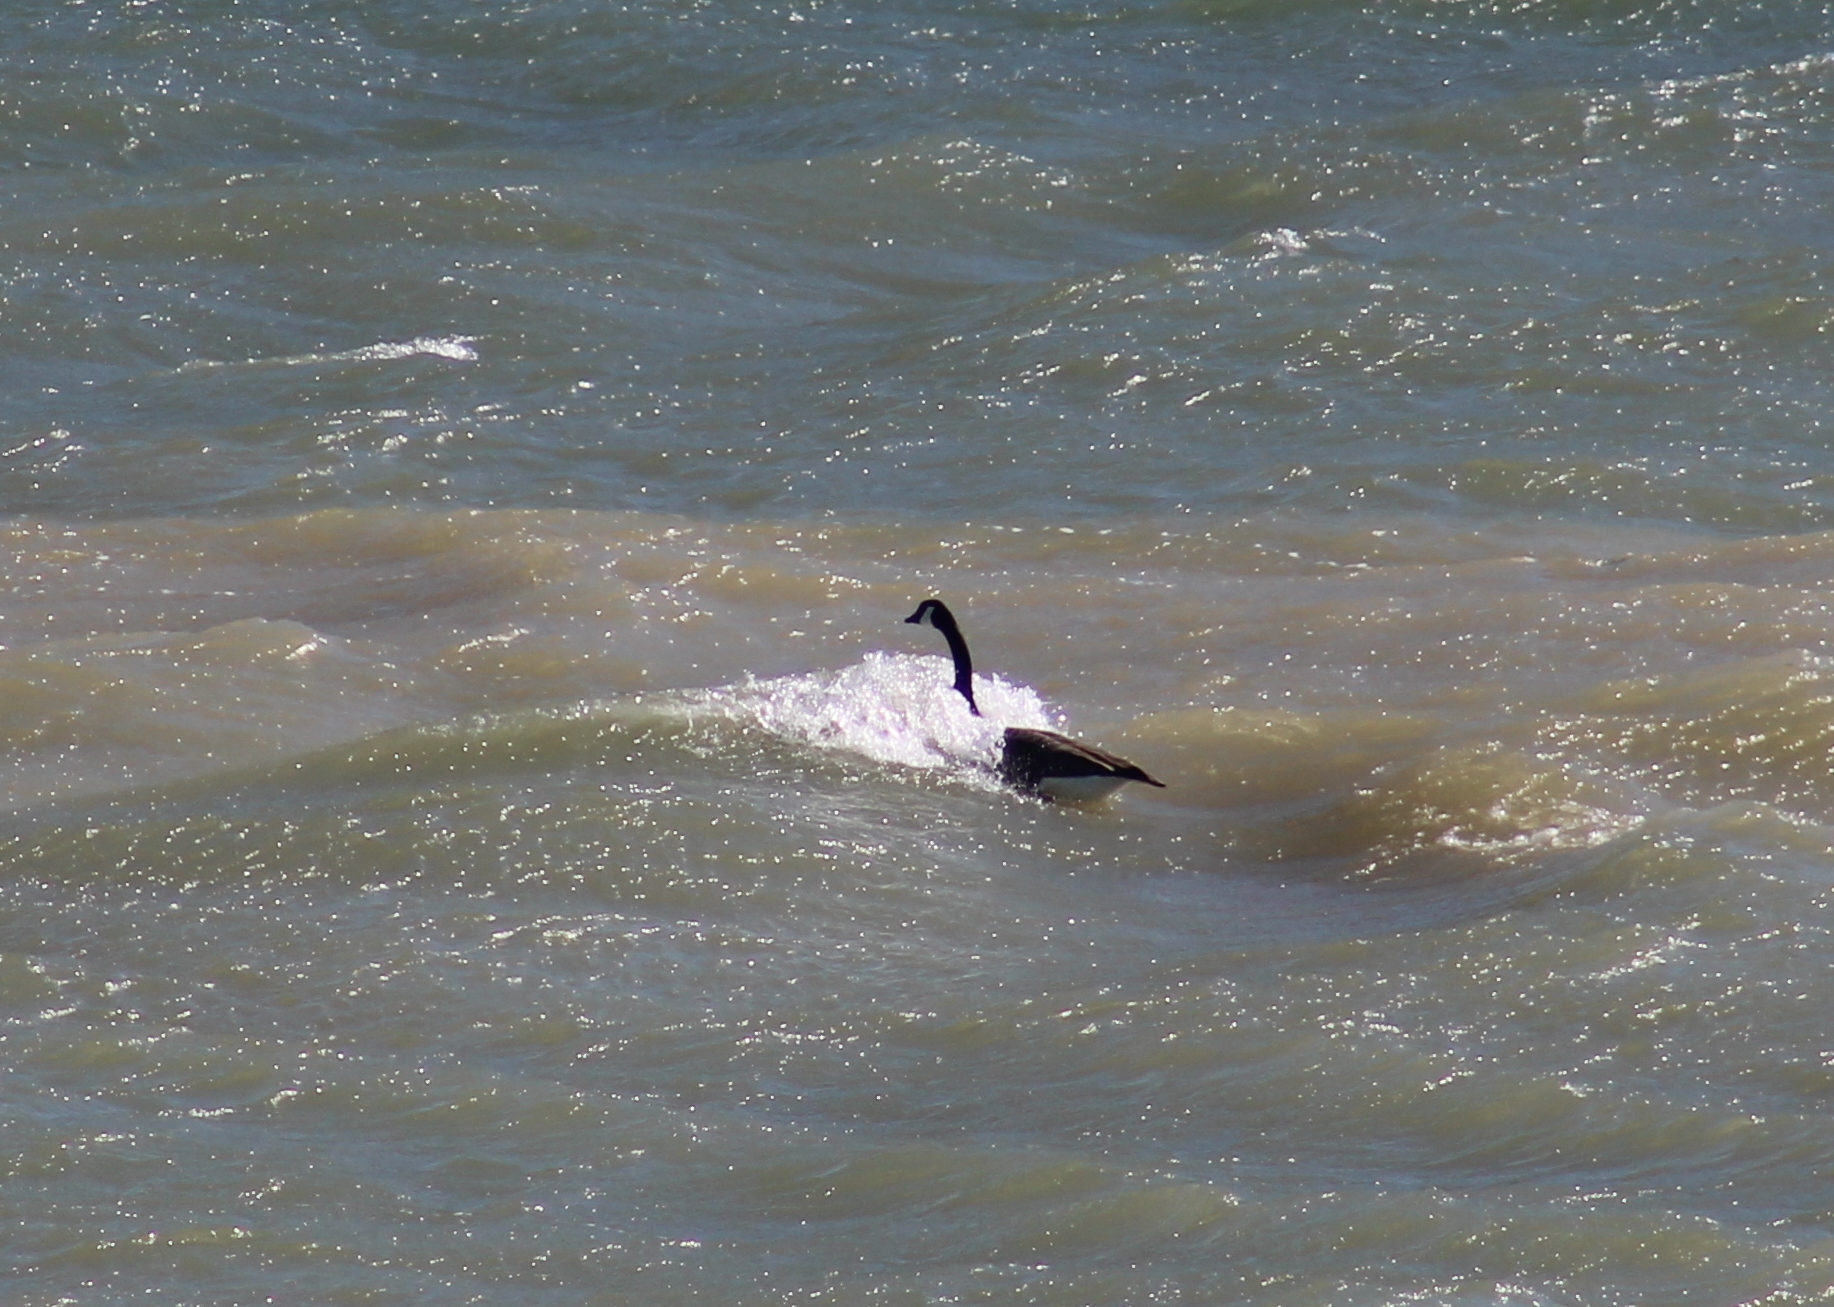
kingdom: Animalia
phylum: Chordata
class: Aves
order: Anseriformes
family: Anatidae
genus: Branta
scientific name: Branta canadensis
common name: Canada goose
